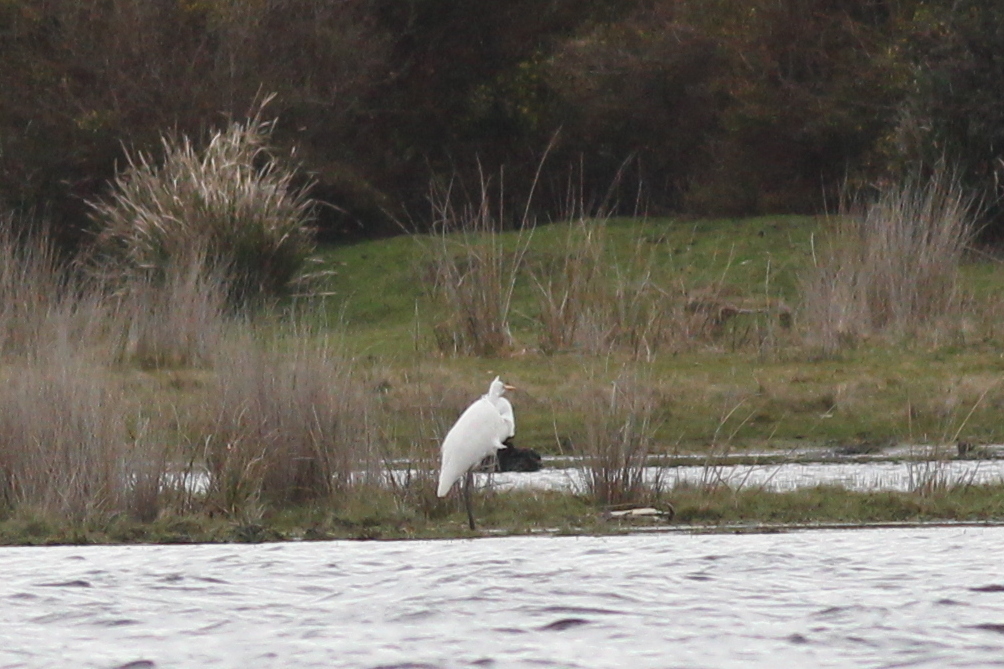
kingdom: Animalia
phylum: Chordata
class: Aves
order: Pelecaniformes
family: Ardeidae
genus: Ardea
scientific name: Ardea modesta
